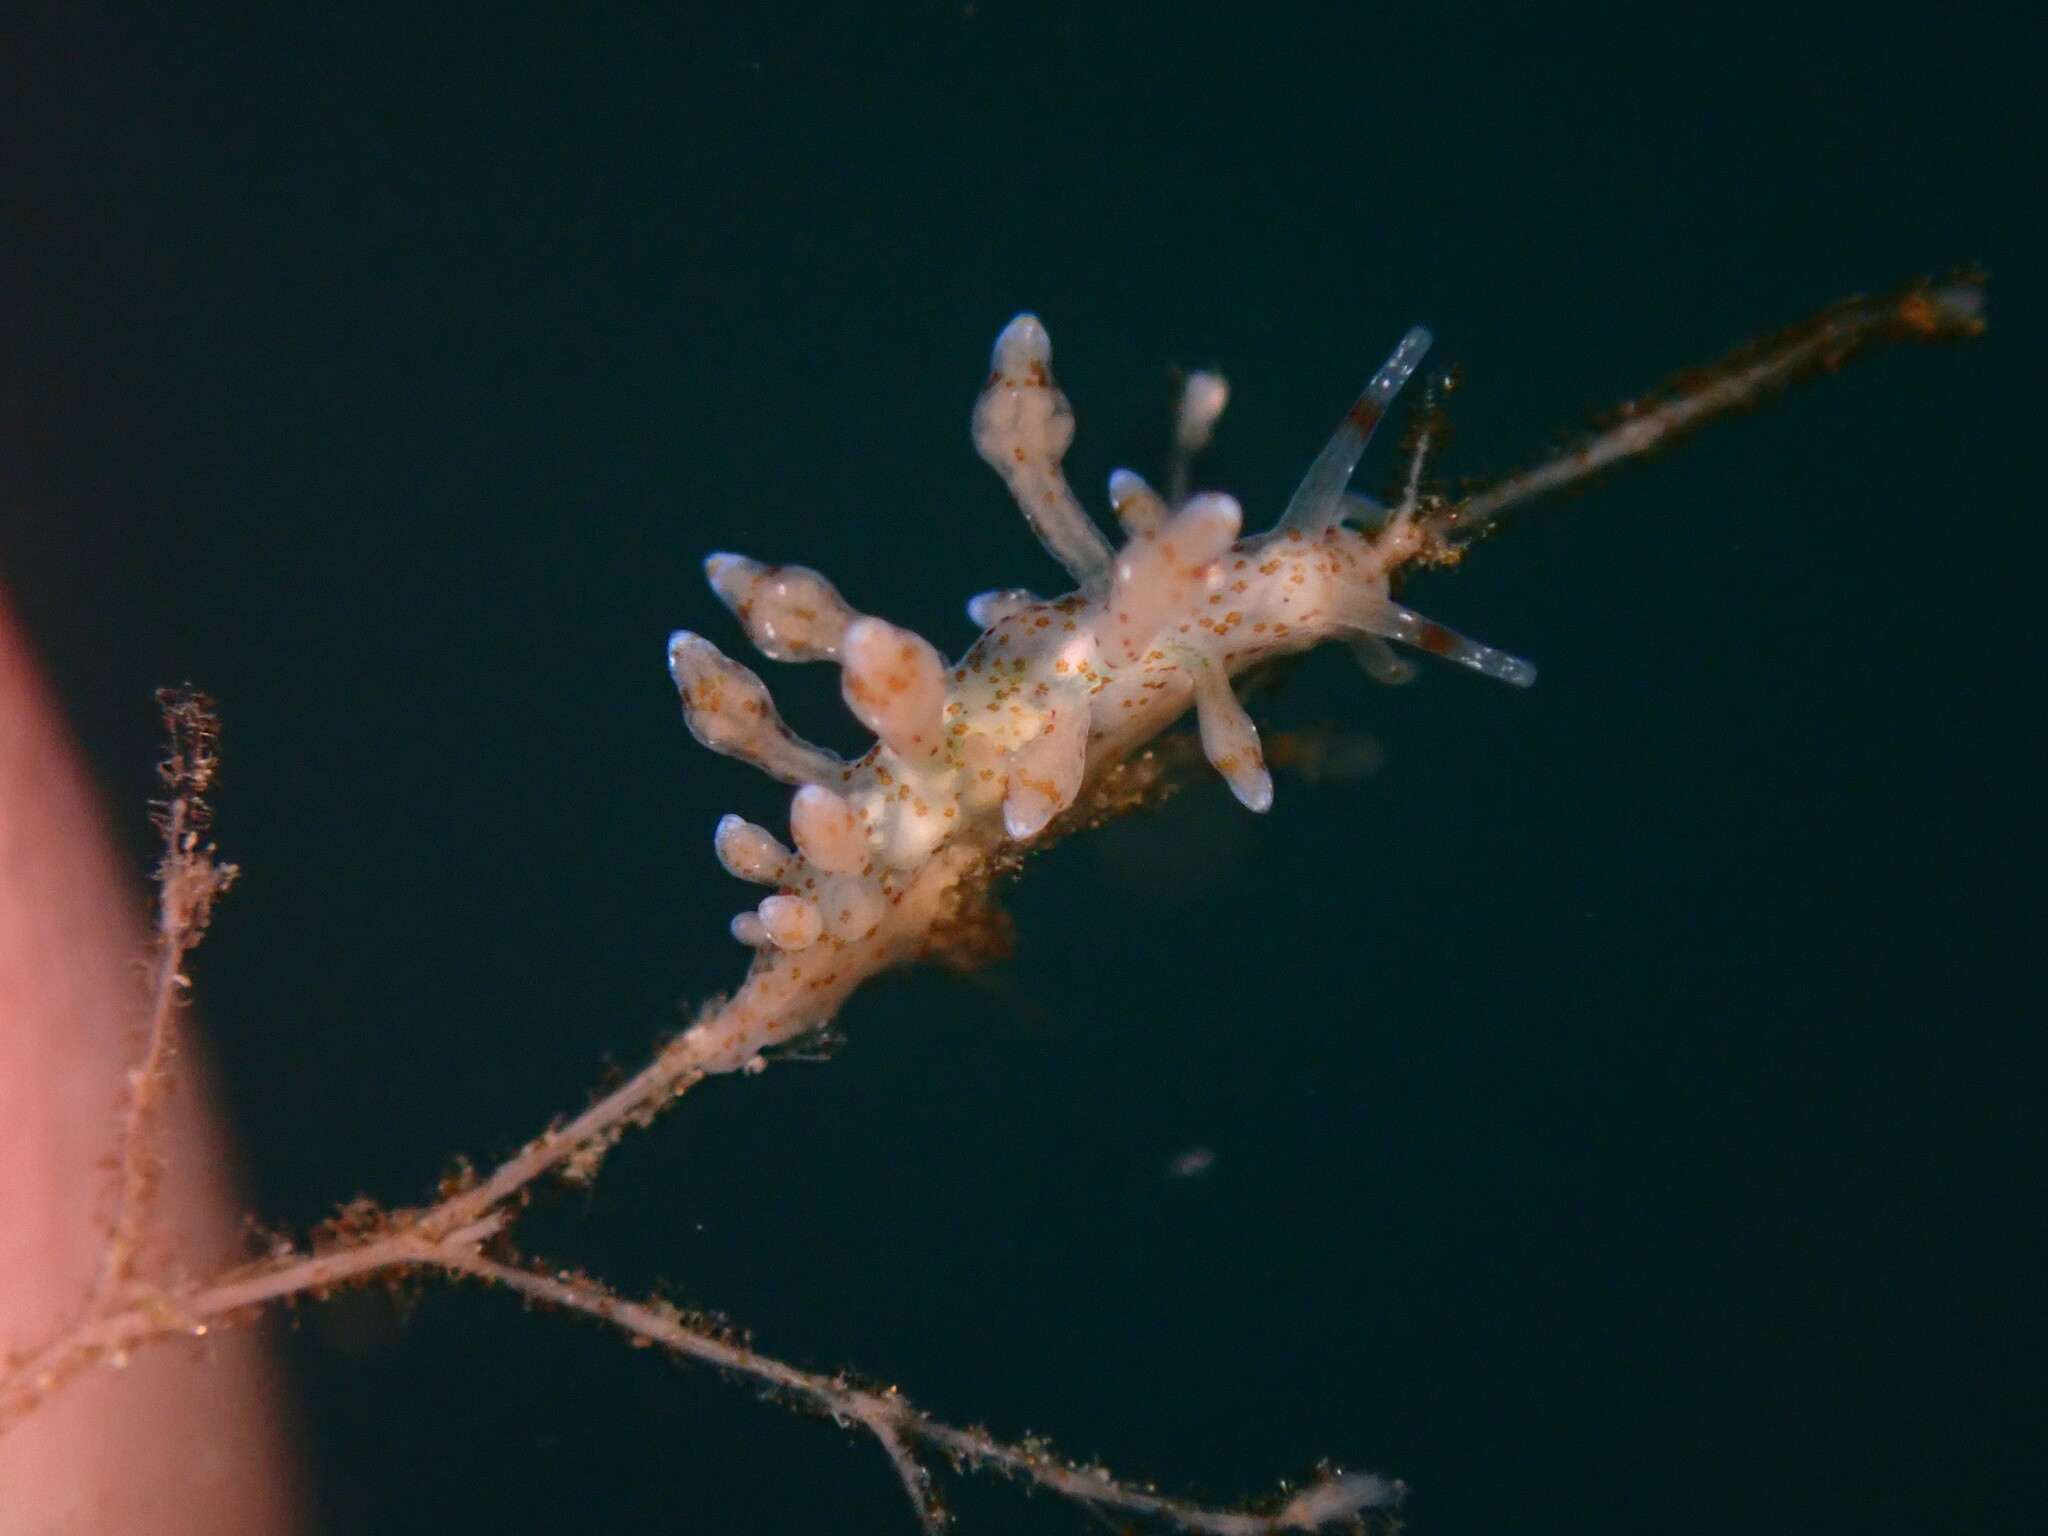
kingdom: Animalia
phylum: Mollusca
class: Gastropoda
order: Nudibranchia
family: Eubranchidae
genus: Eubranchus
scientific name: Eubranchus olivaceus
